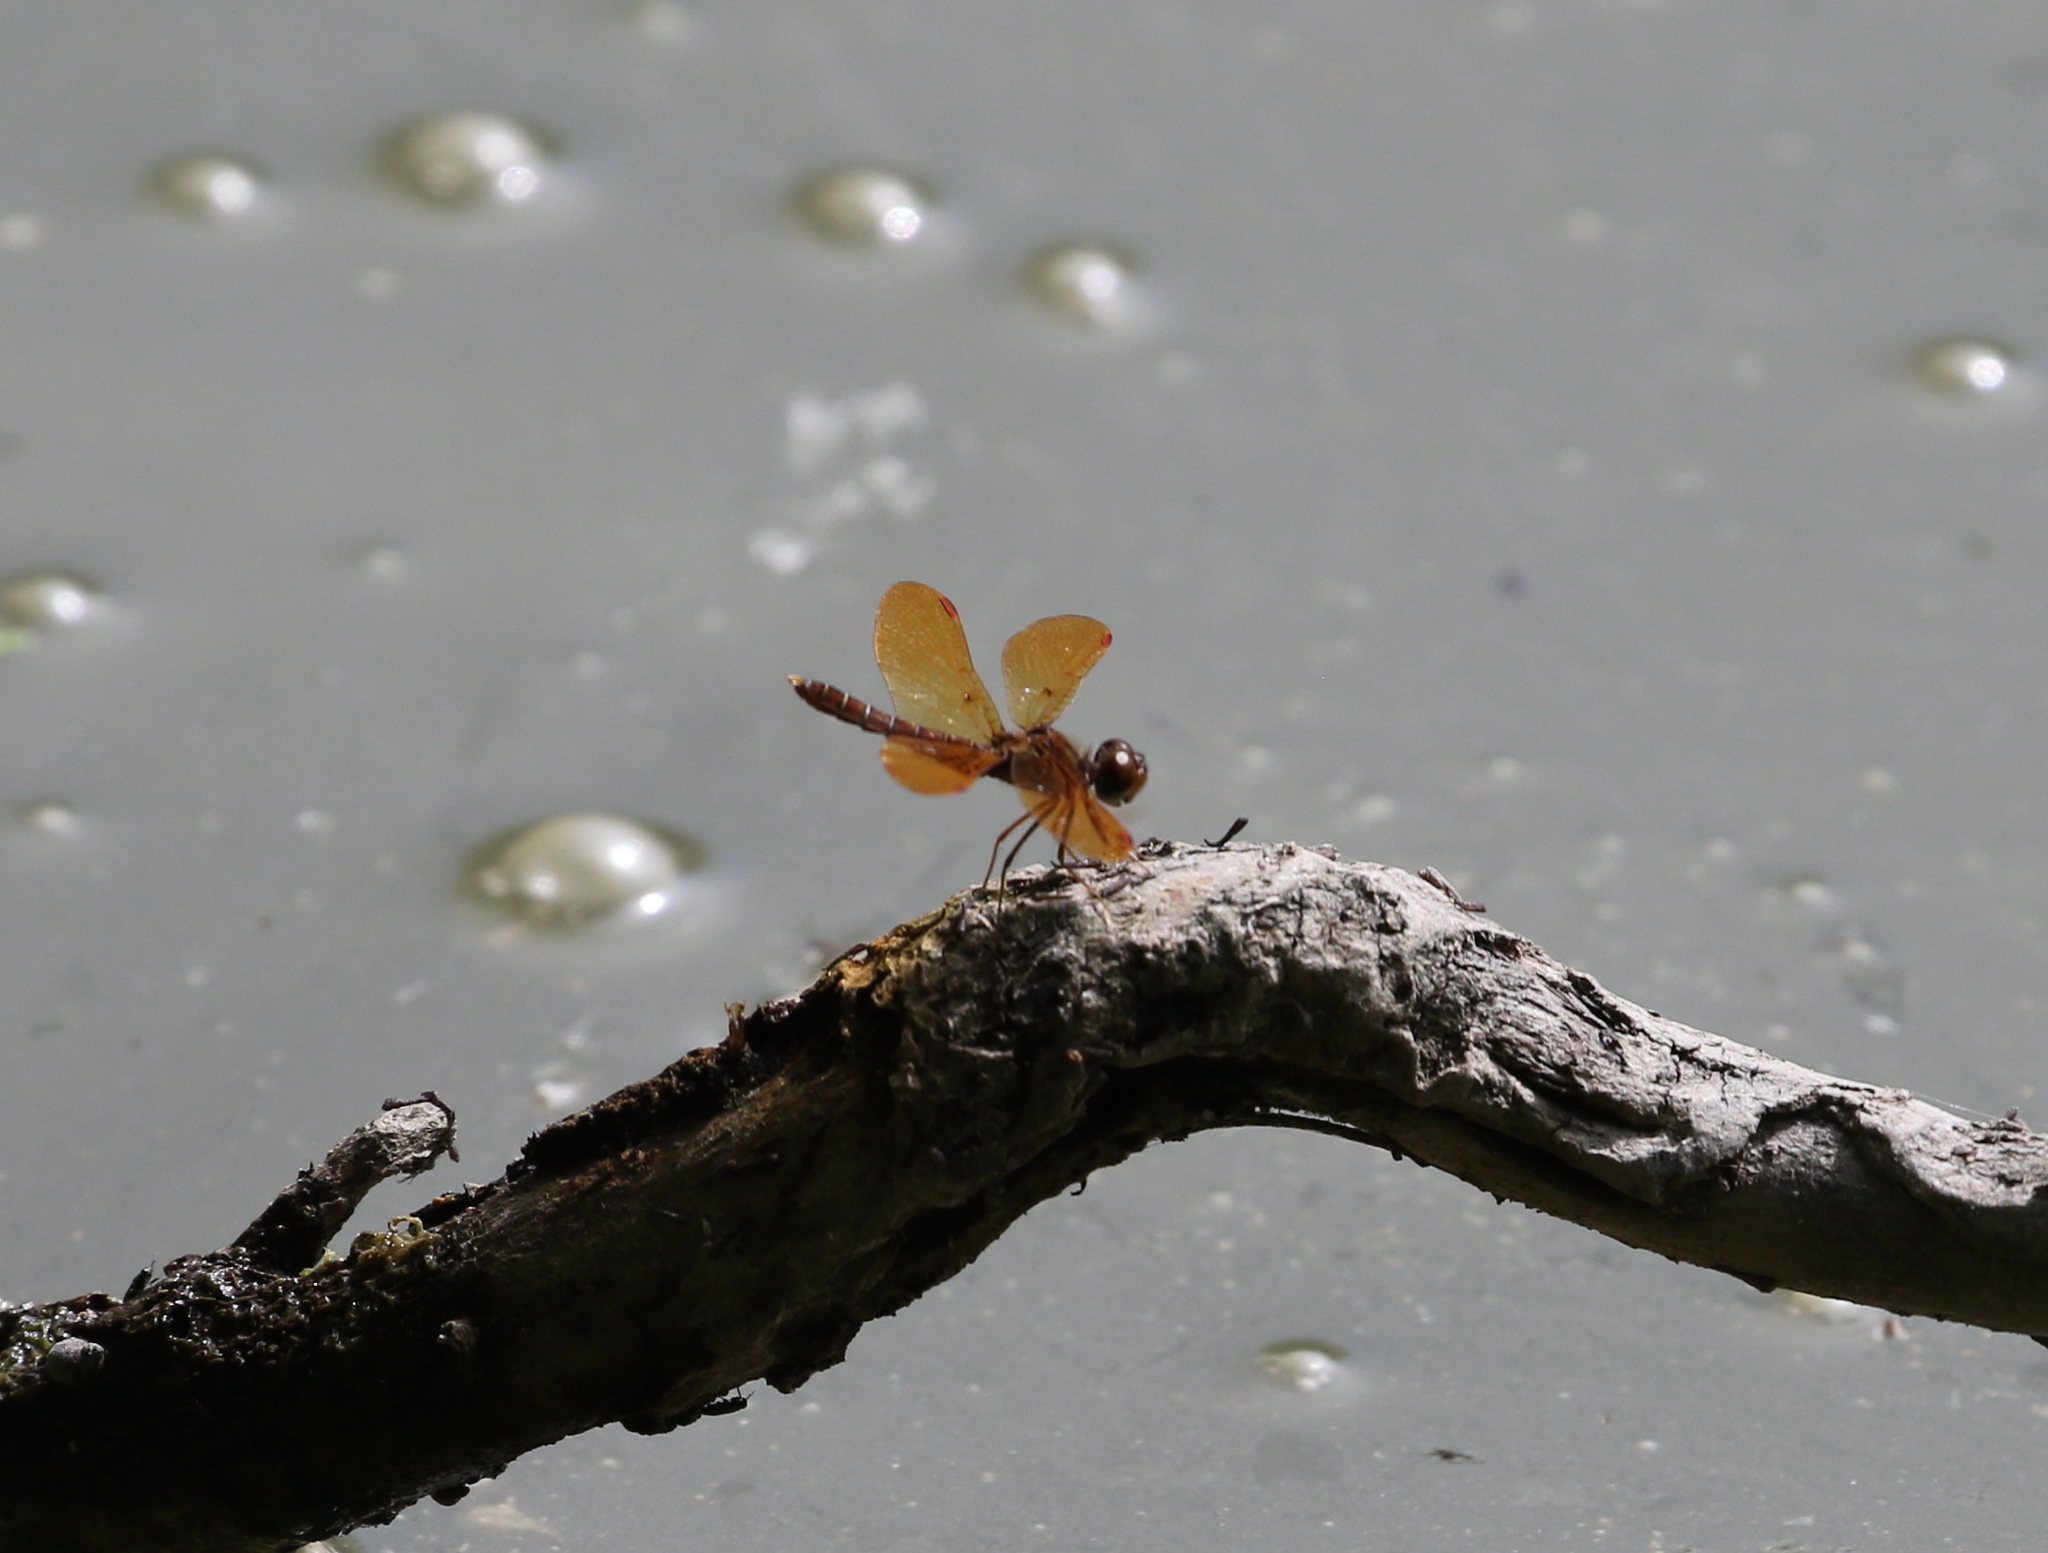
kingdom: Animalia
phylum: Arthropoda
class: Insecta
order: Odonata
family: Libellulidae
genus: Perithemis
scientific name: Perithemis tenera
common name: Eastern amberwing
